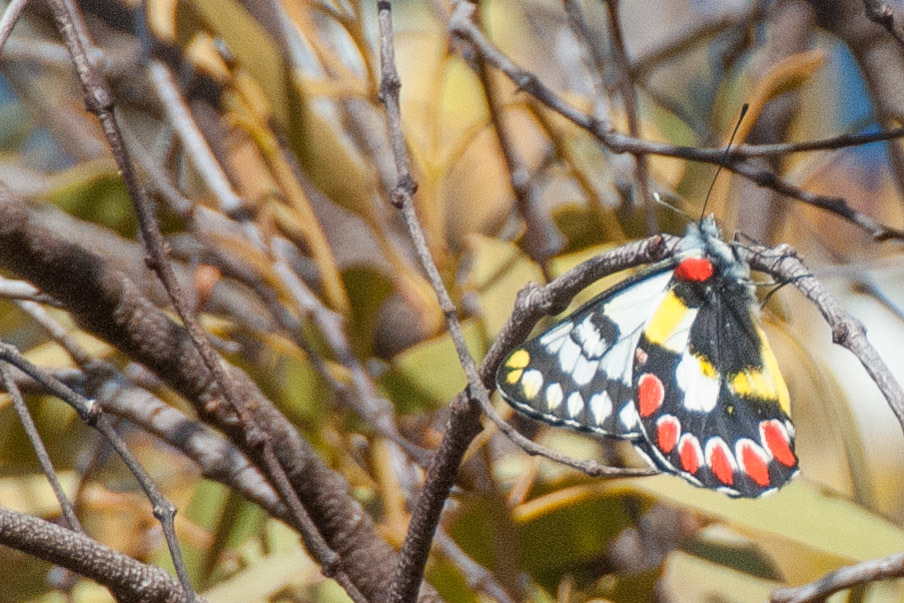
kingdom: Animalia
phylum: Arthropoda
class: Insecta
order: Lepidoptera
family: Pieridae
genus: Delias
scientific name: Delias aganippe
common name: Red-spotted jezebel
